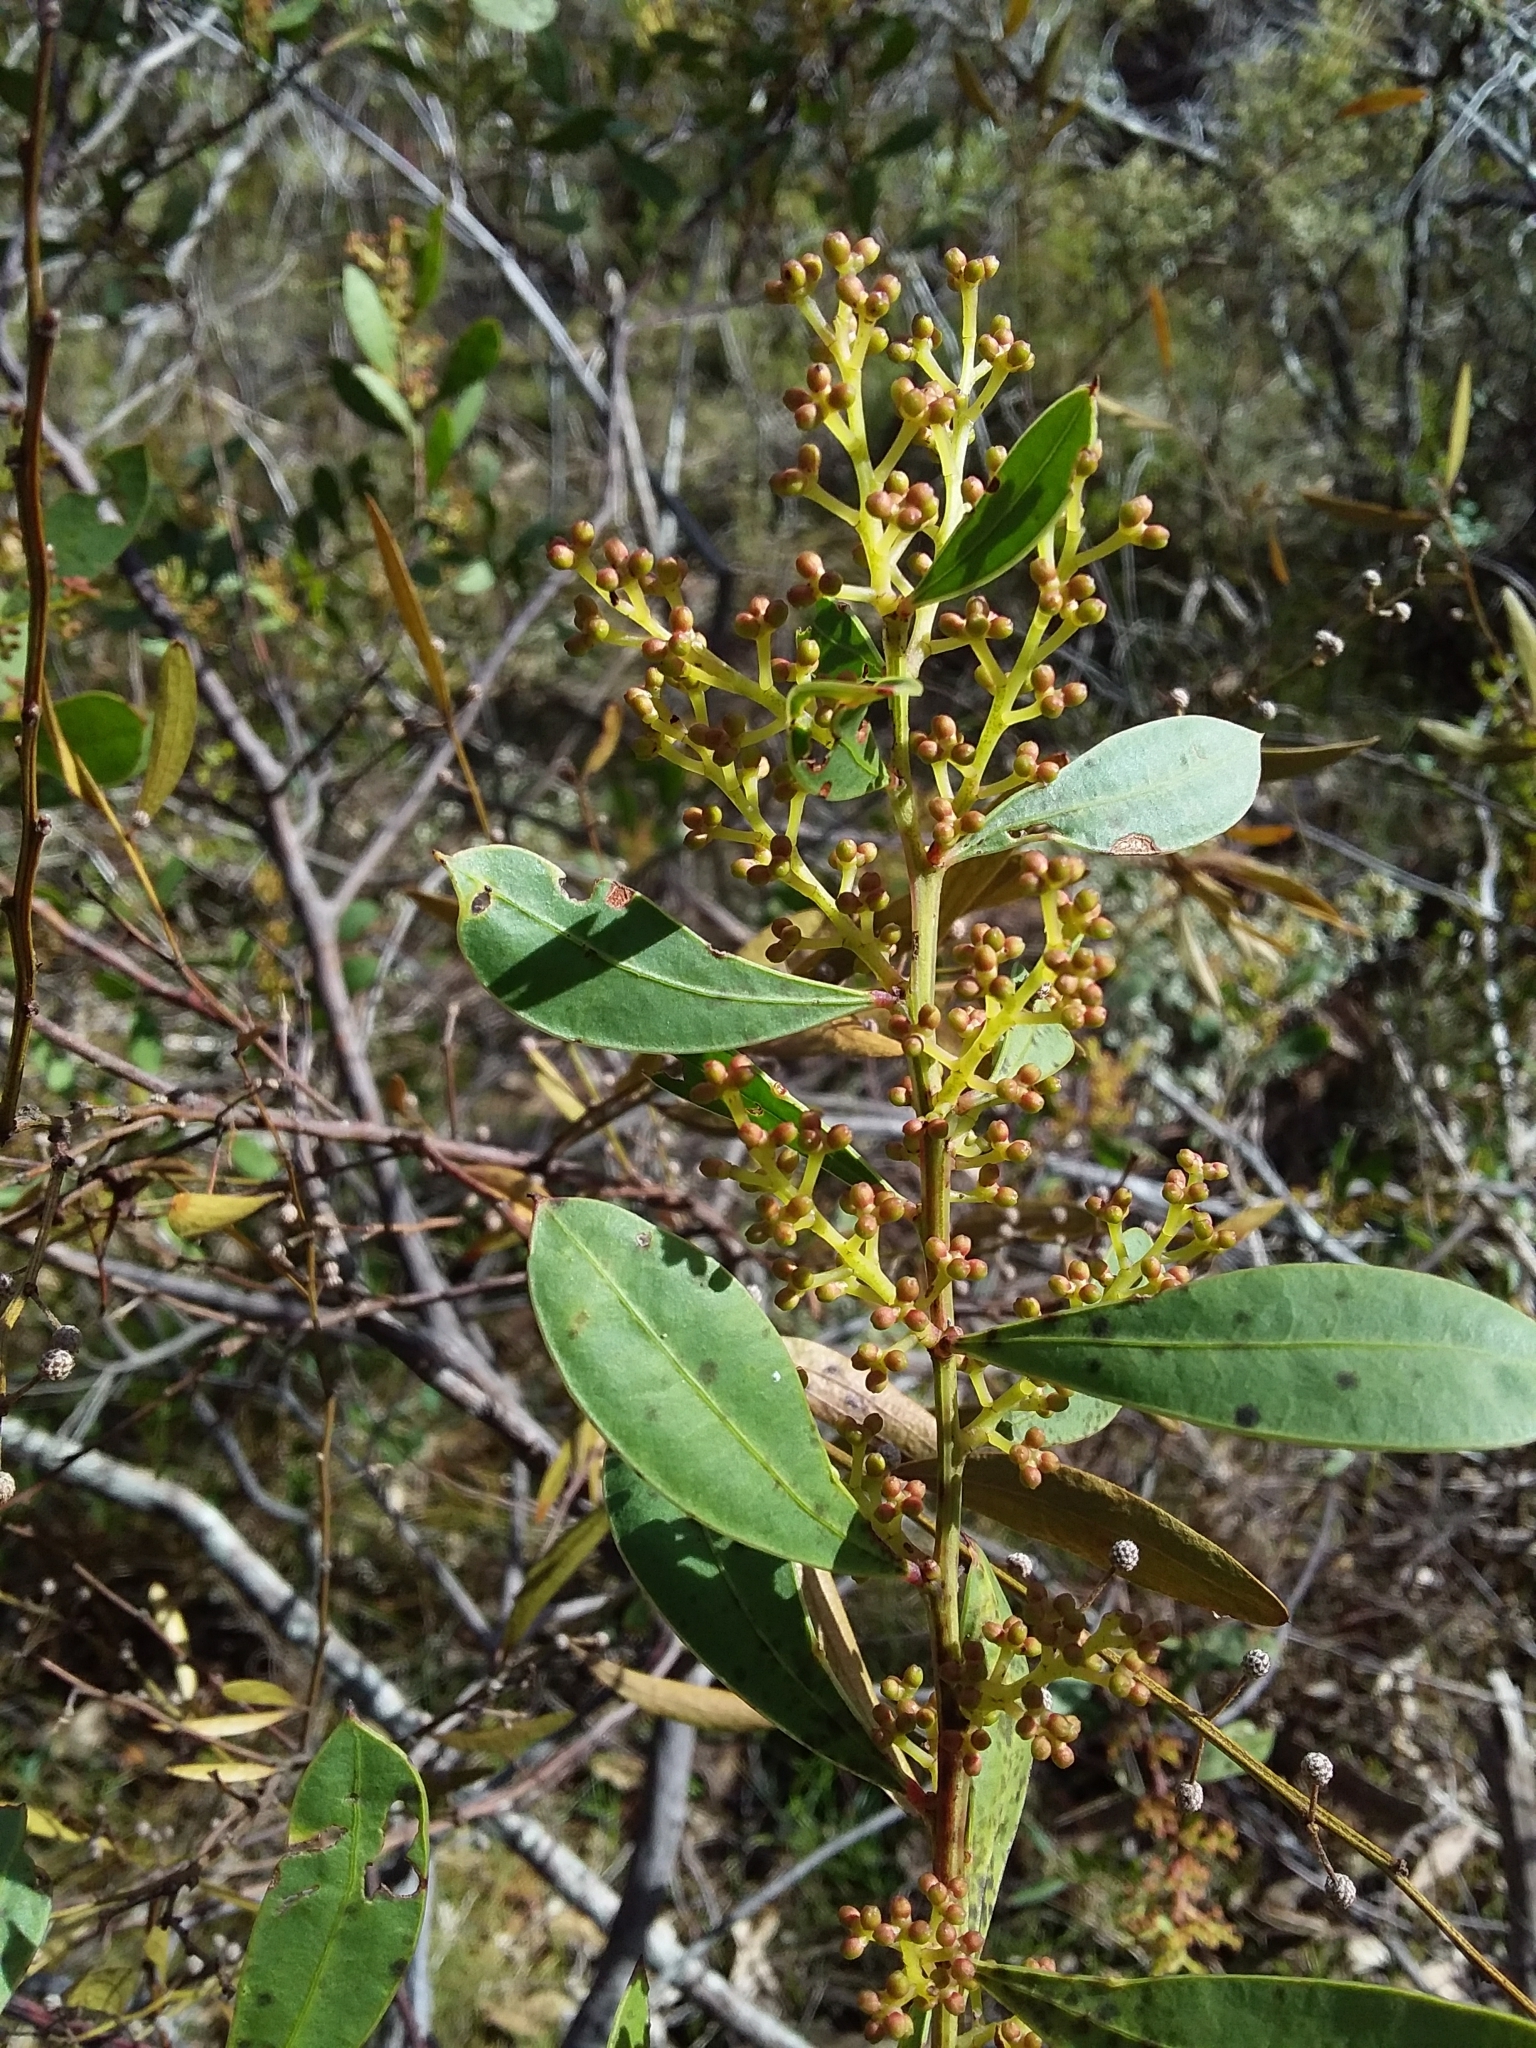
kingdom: Plantae
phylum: Tracheophyta
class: Magnoliopsida
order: Fabales
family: Fabaceae
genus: Acacia
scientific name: Acacia myrtifolia
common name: Myrtle wattle
